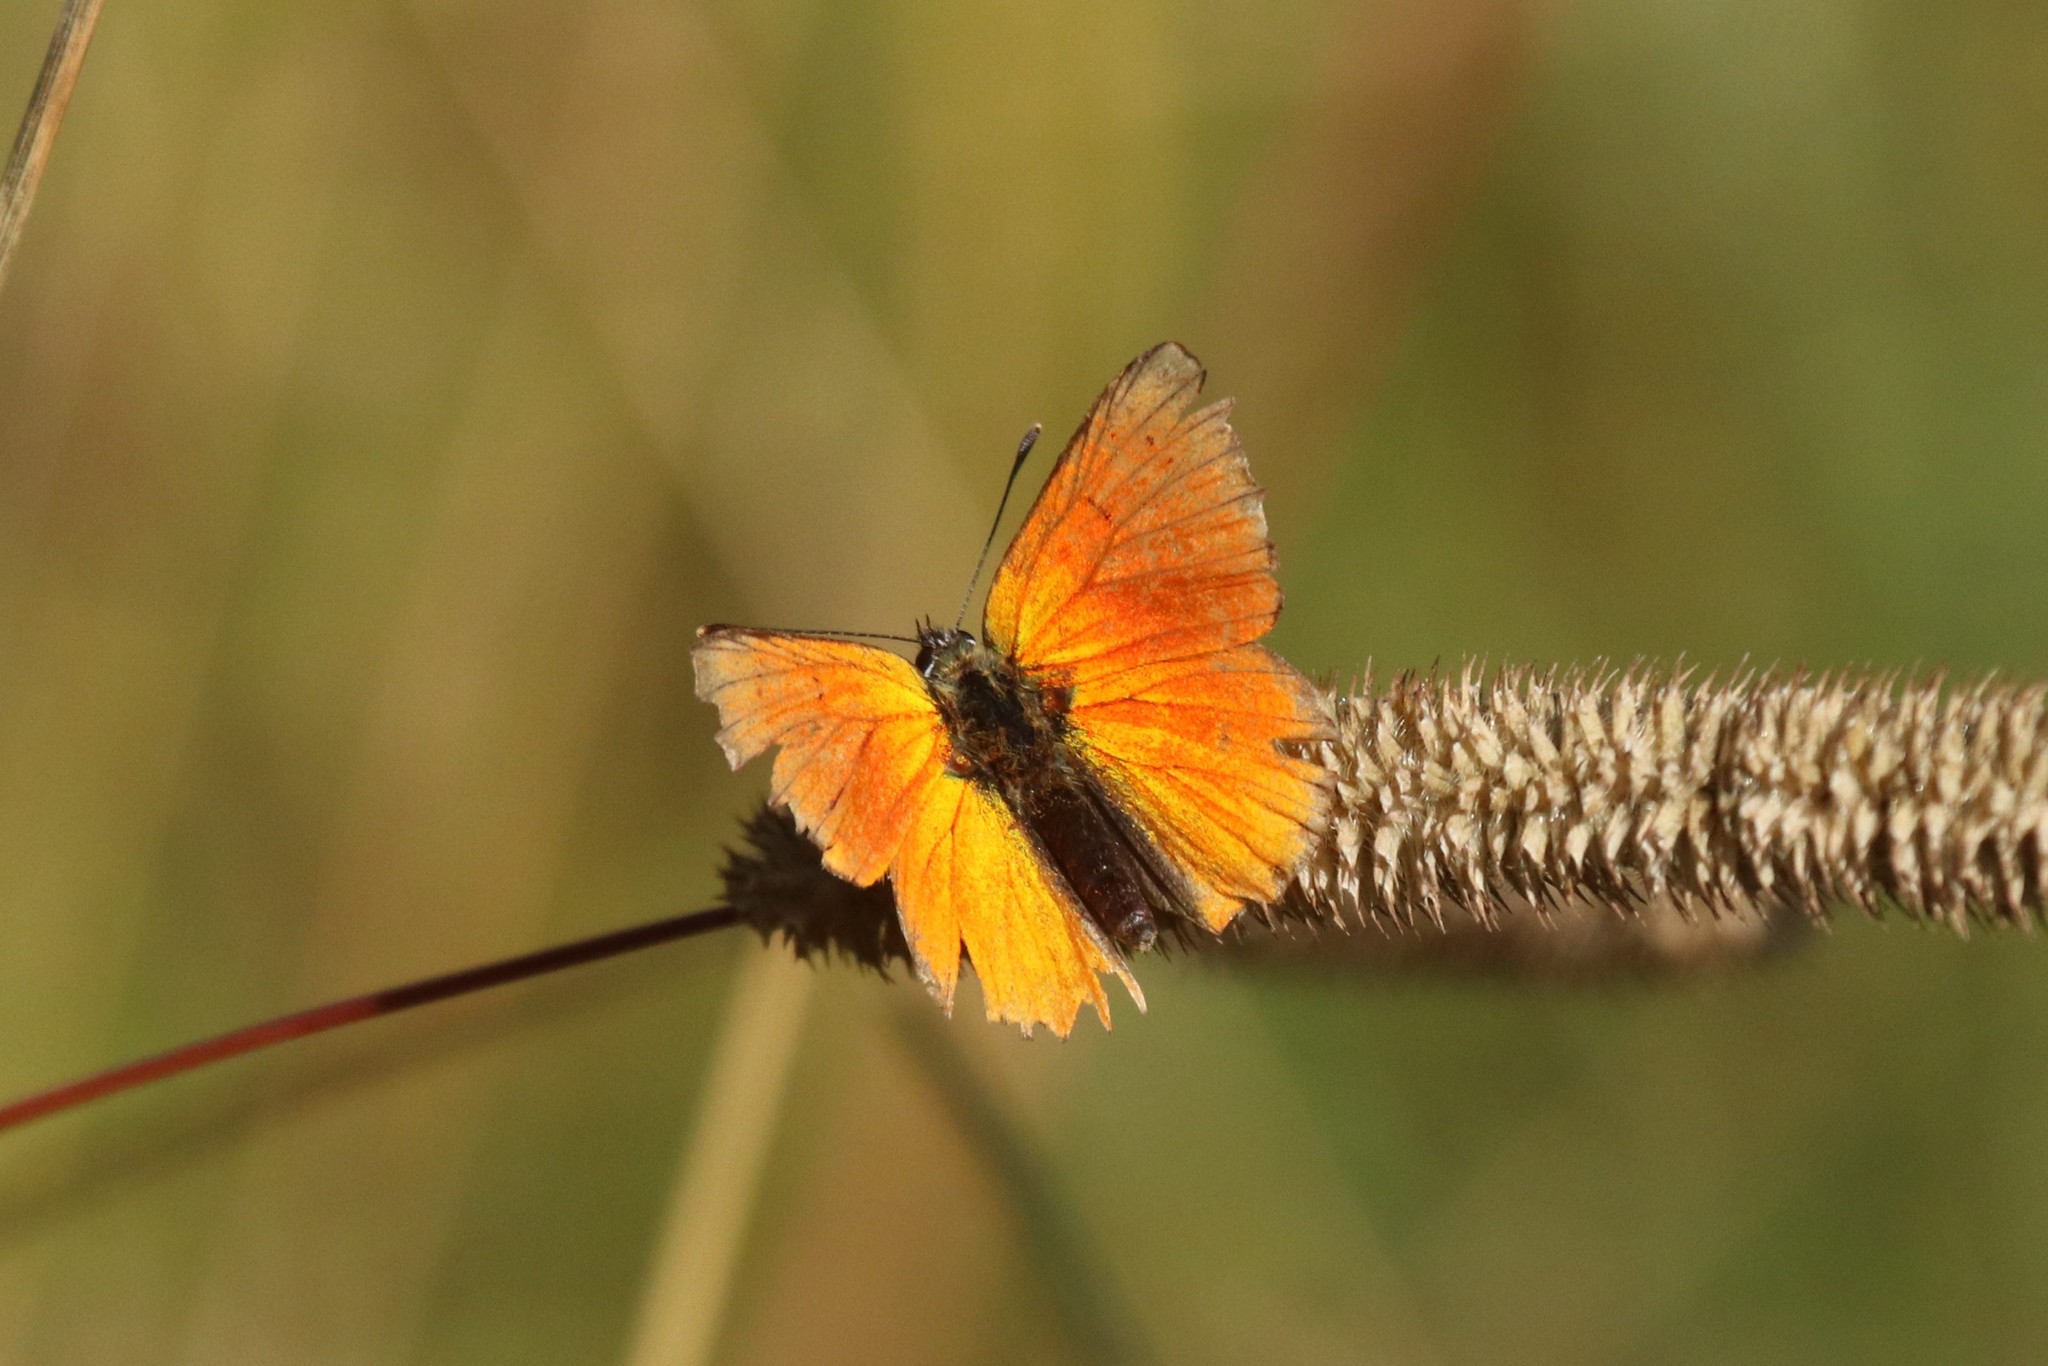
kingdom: Animalia
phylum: Arthropoda
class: Insecta
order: Lepidoptera
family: Lycaenidae
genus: Lycaena
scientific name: Lycaena virgaureae
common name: Scarce copper
